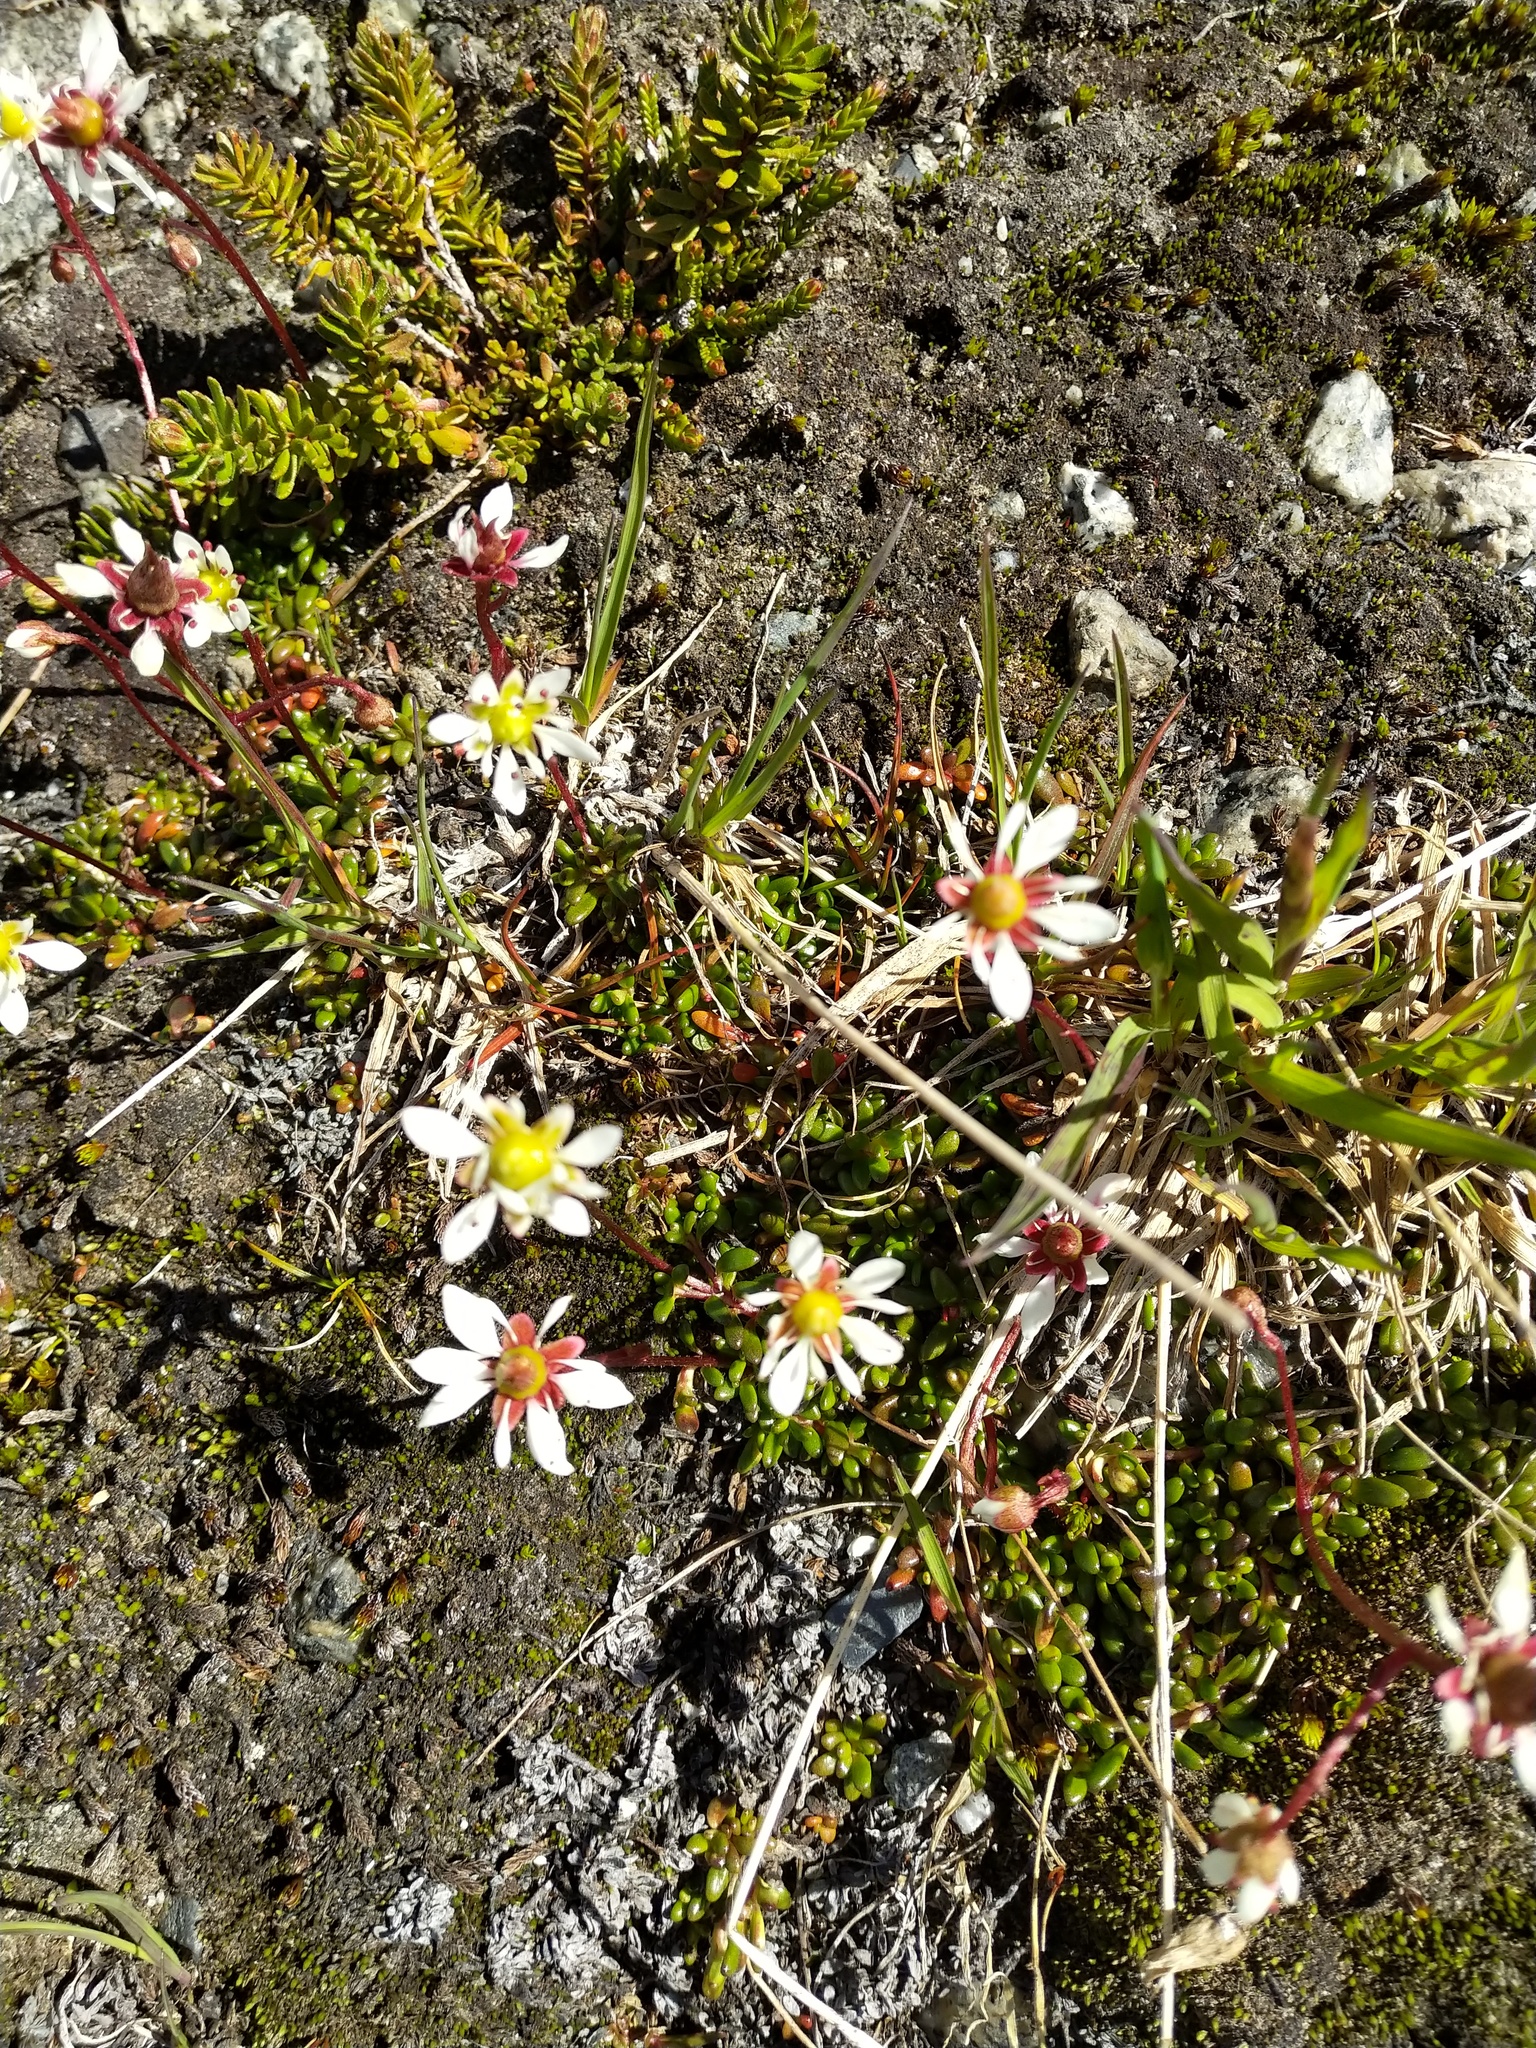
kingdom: Plantae
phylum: Tracheophyta
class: Magnoliopsida
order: Saxifragales
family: Saxifragaceae
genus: Micranthes
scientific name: Micranthes tolmiei
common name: Tolmie's saxifrage
